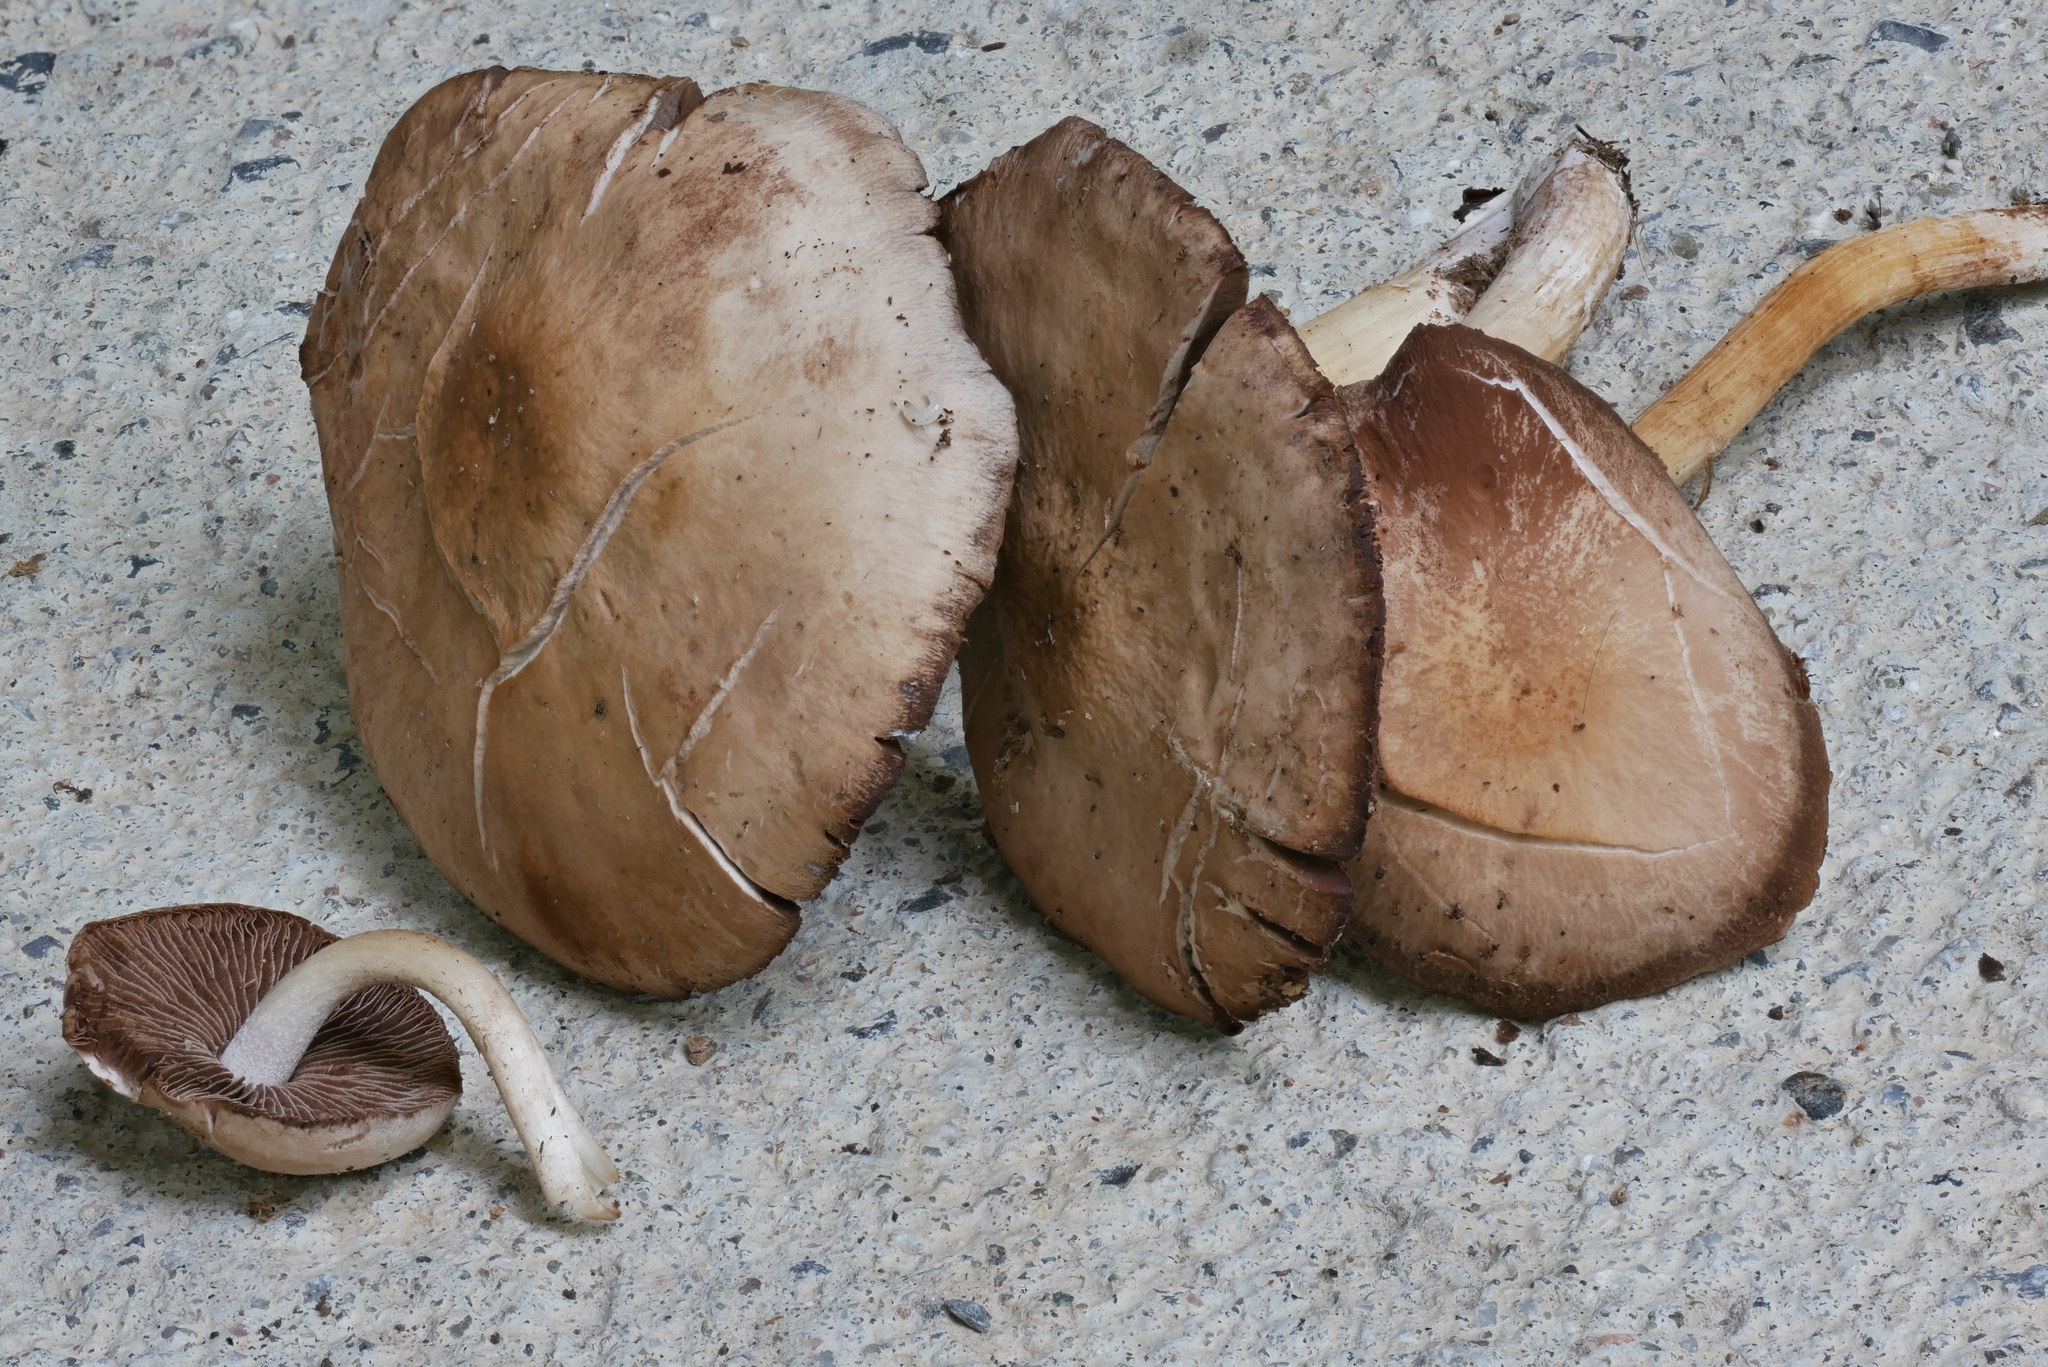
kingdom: Fungi
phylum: Basidiomycota
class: Agaricomycetes
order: Agaricales
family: Psathyrellaceae
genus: Homophron
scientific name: Homophron spadiceum
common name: Chestnut brittlestem
